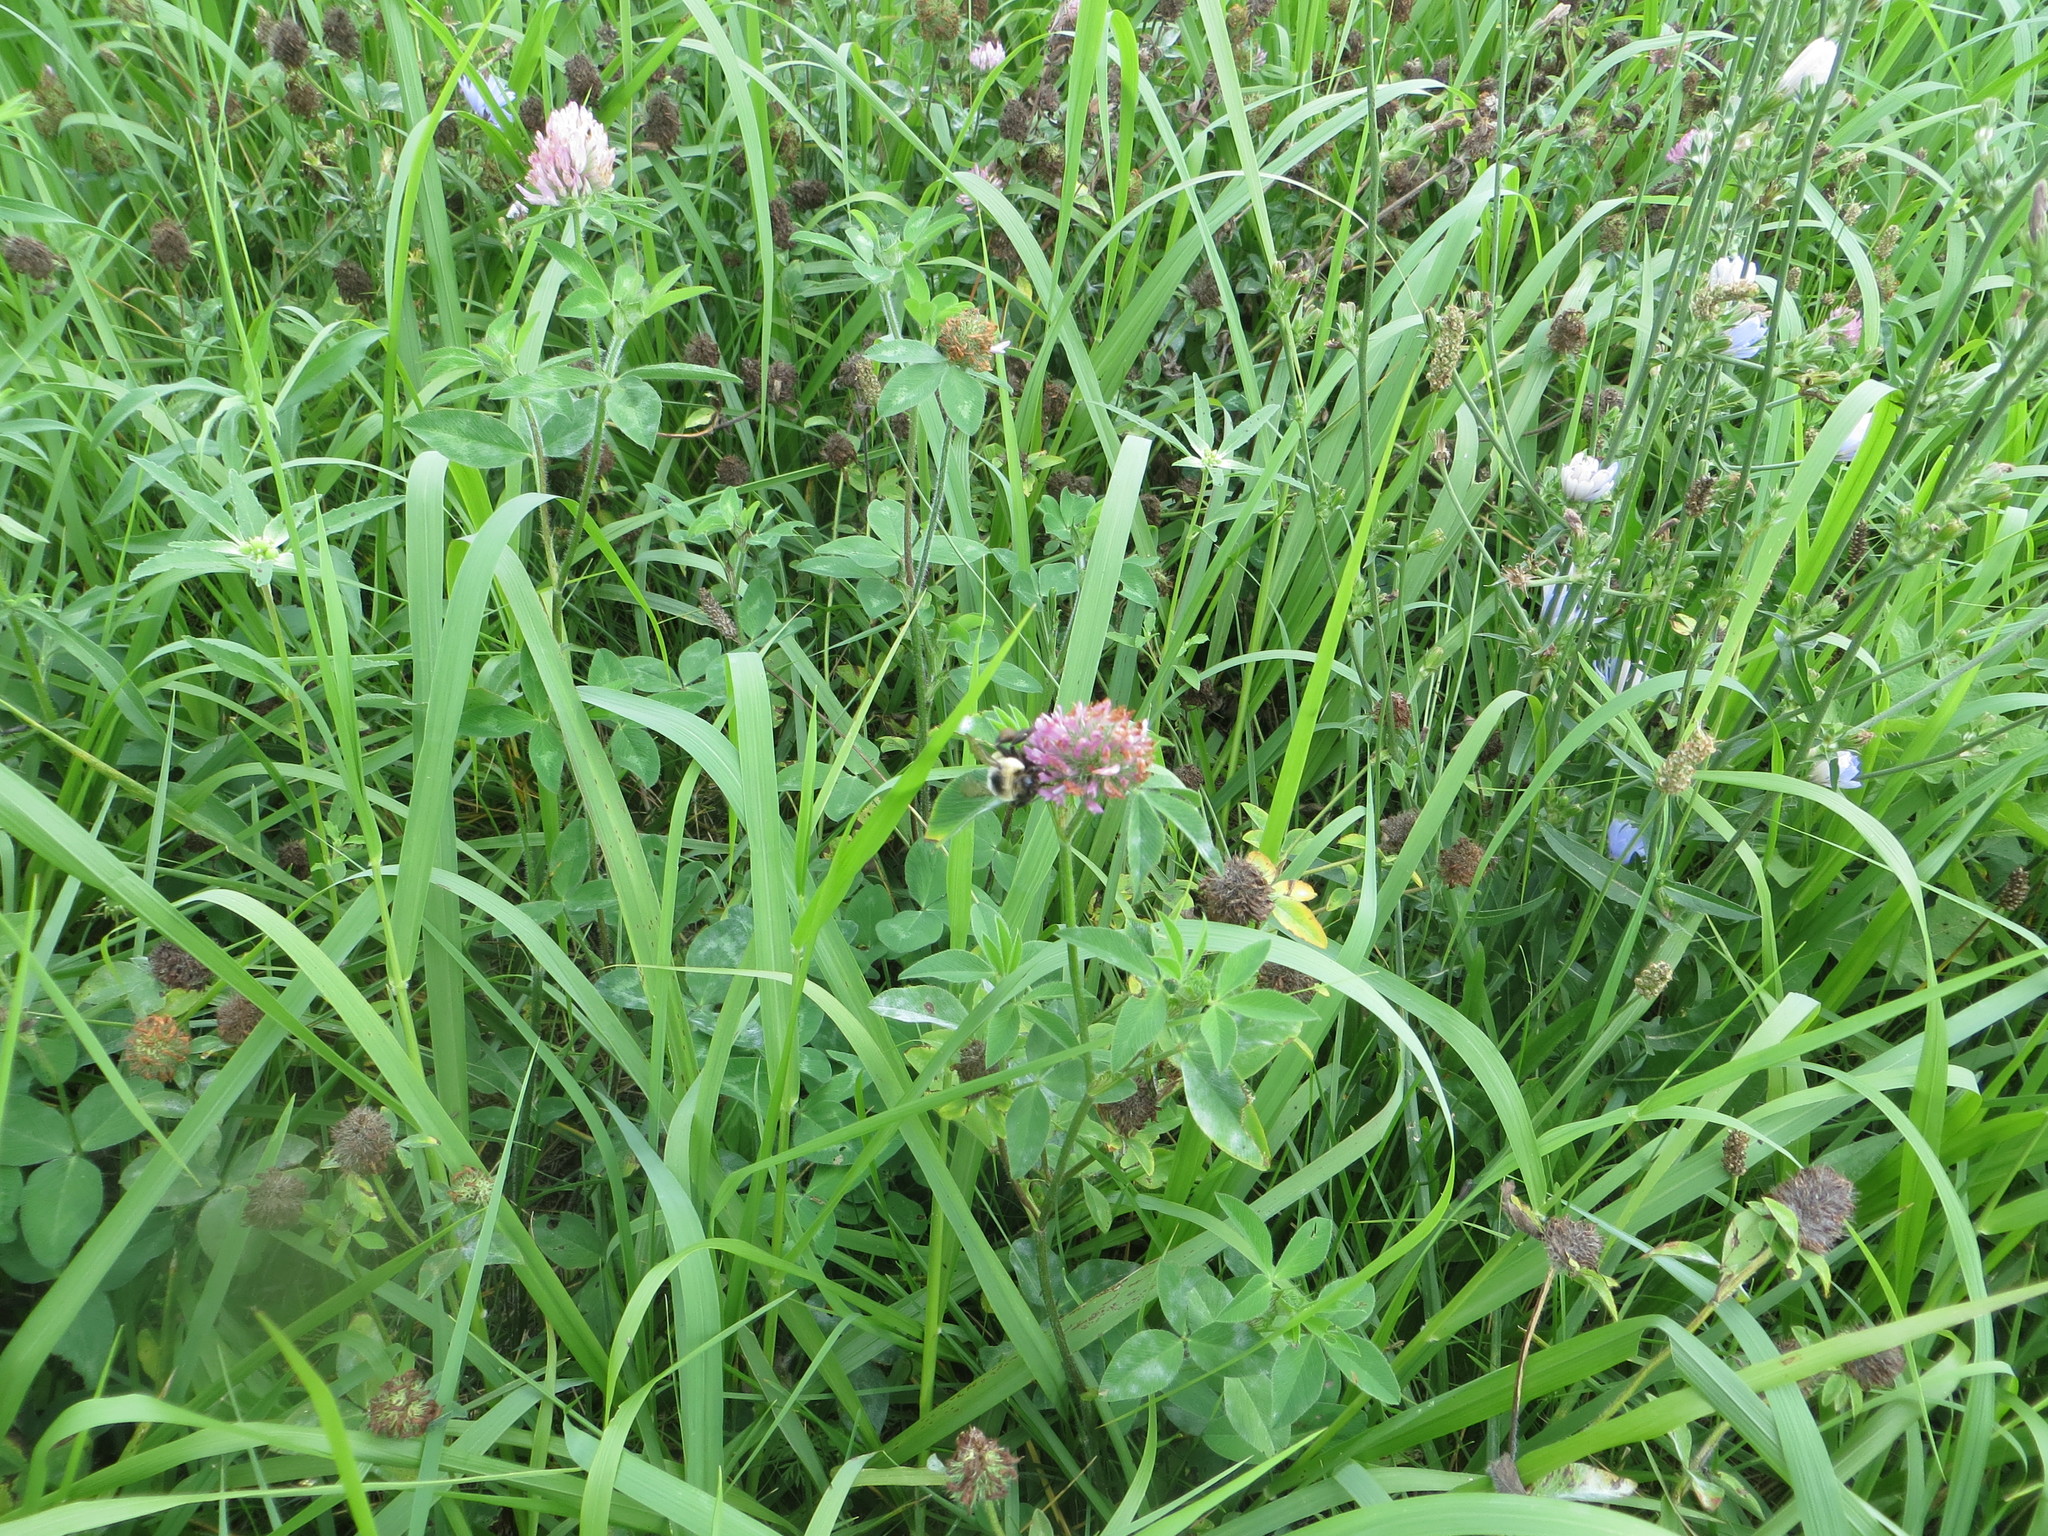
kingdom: Plantae
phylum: Tracheophyta
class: Magnoliopsida
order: Fabales
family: Fabaceae
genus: Trifolium
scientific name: Trifolium pratense
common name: Red clover
